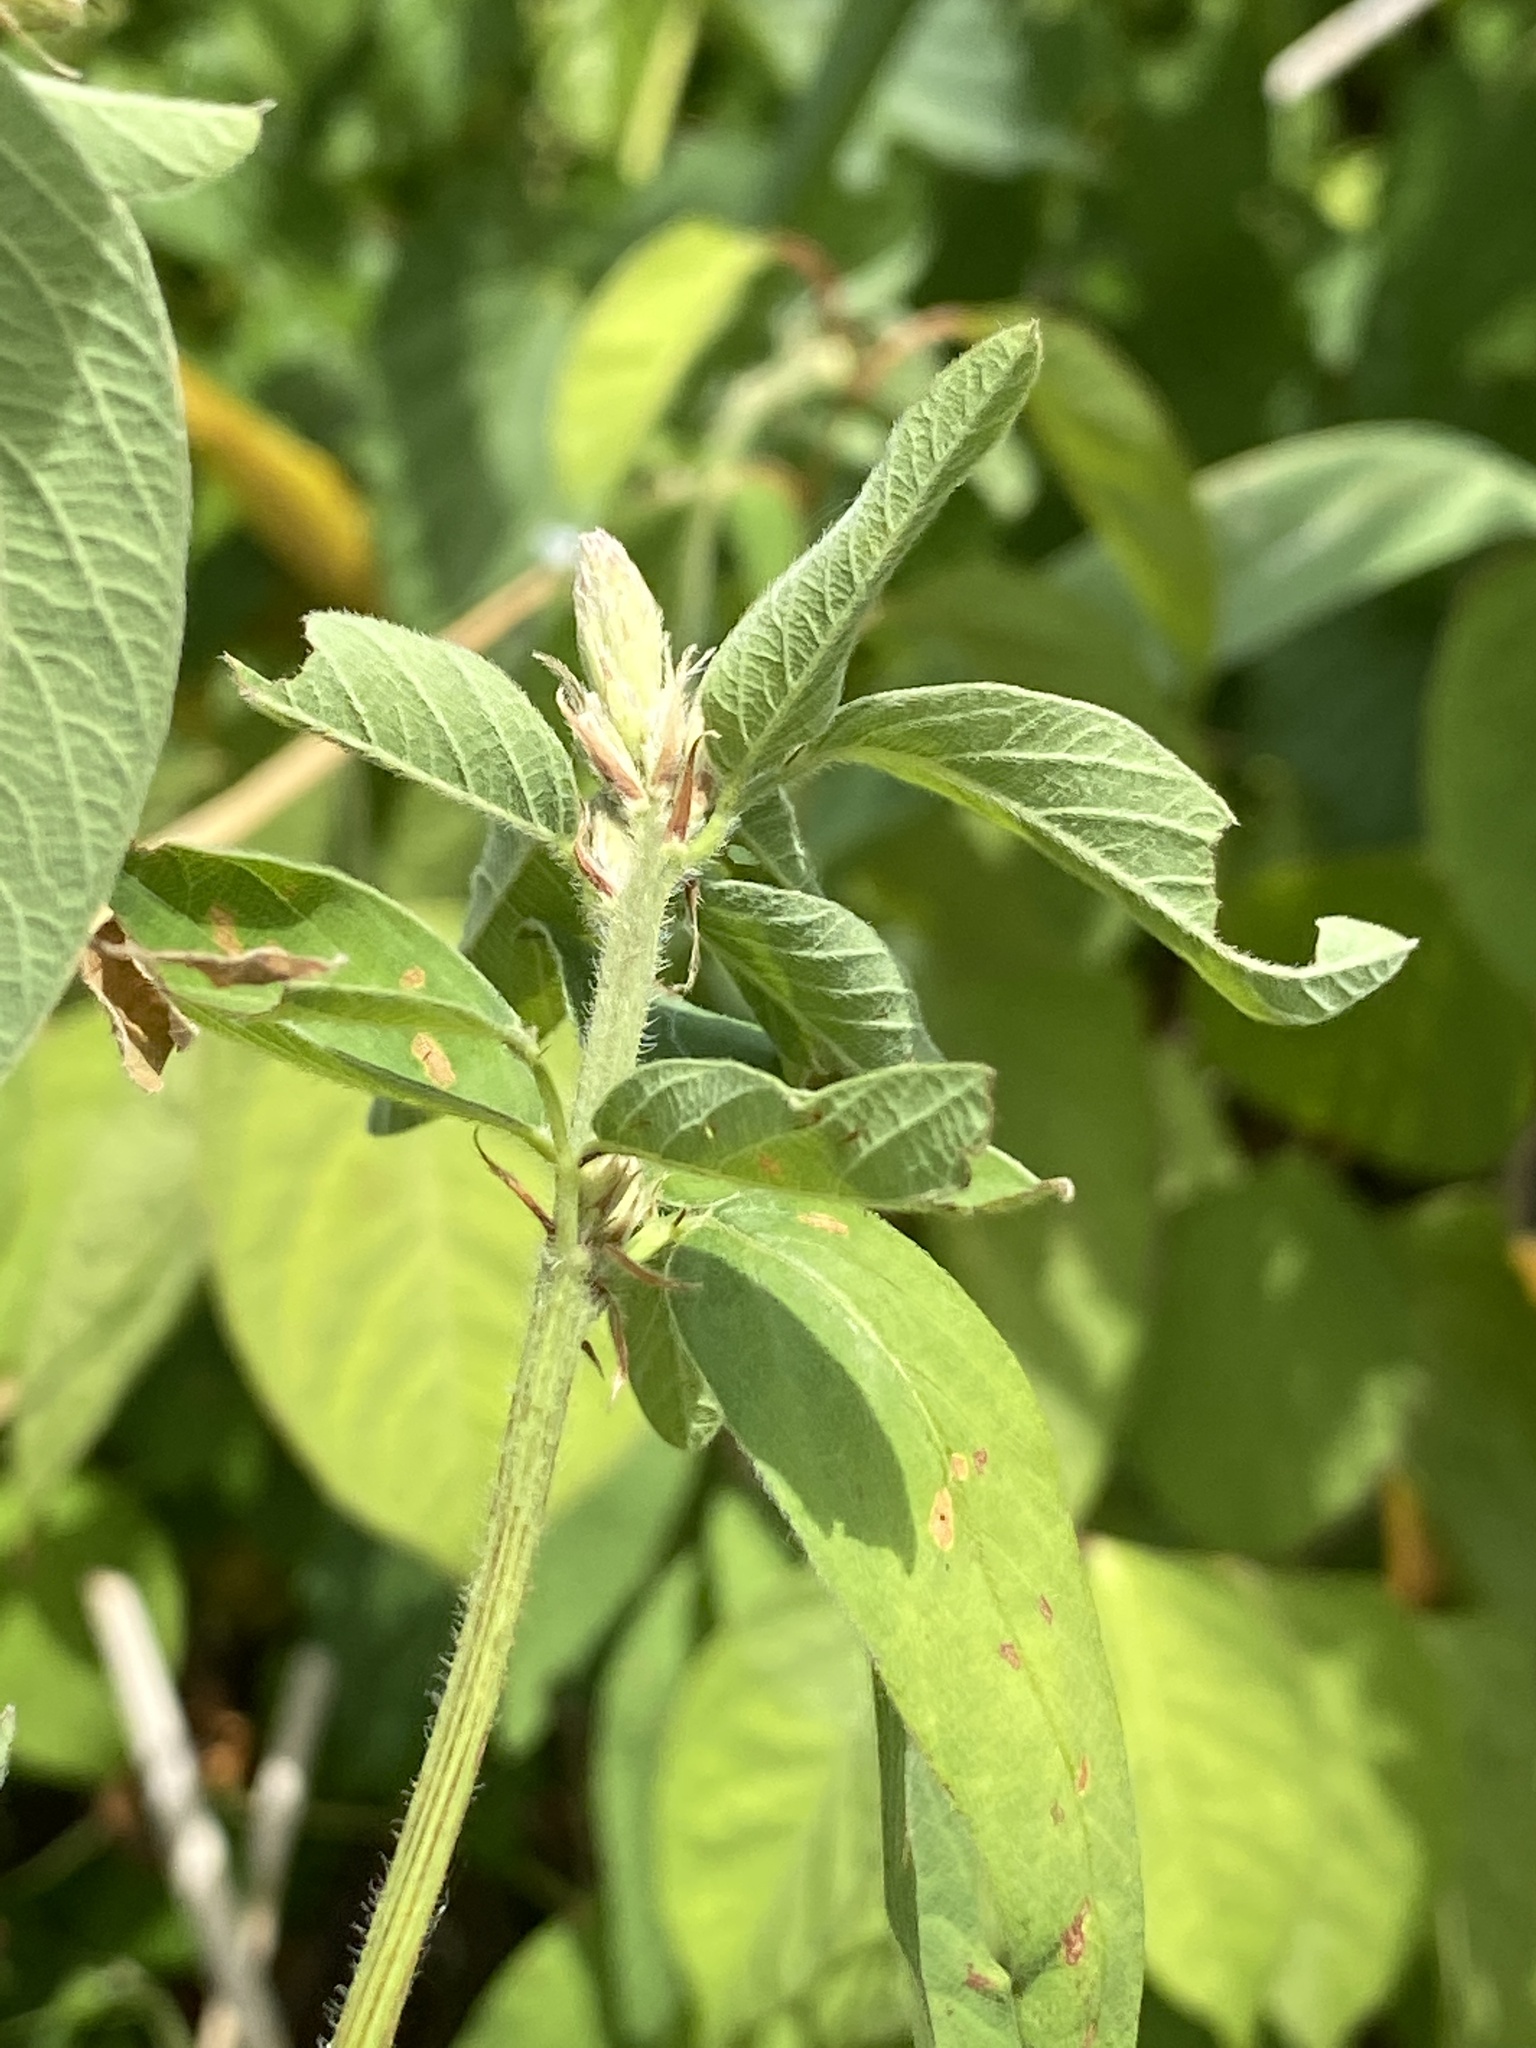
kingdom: Plantae
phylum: Tracheophyta
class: Magnoliopsida
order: Fabales
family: Fabaceae
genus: Desmodium
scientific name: Desmodium canadense
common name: Canada tick-trefoil
